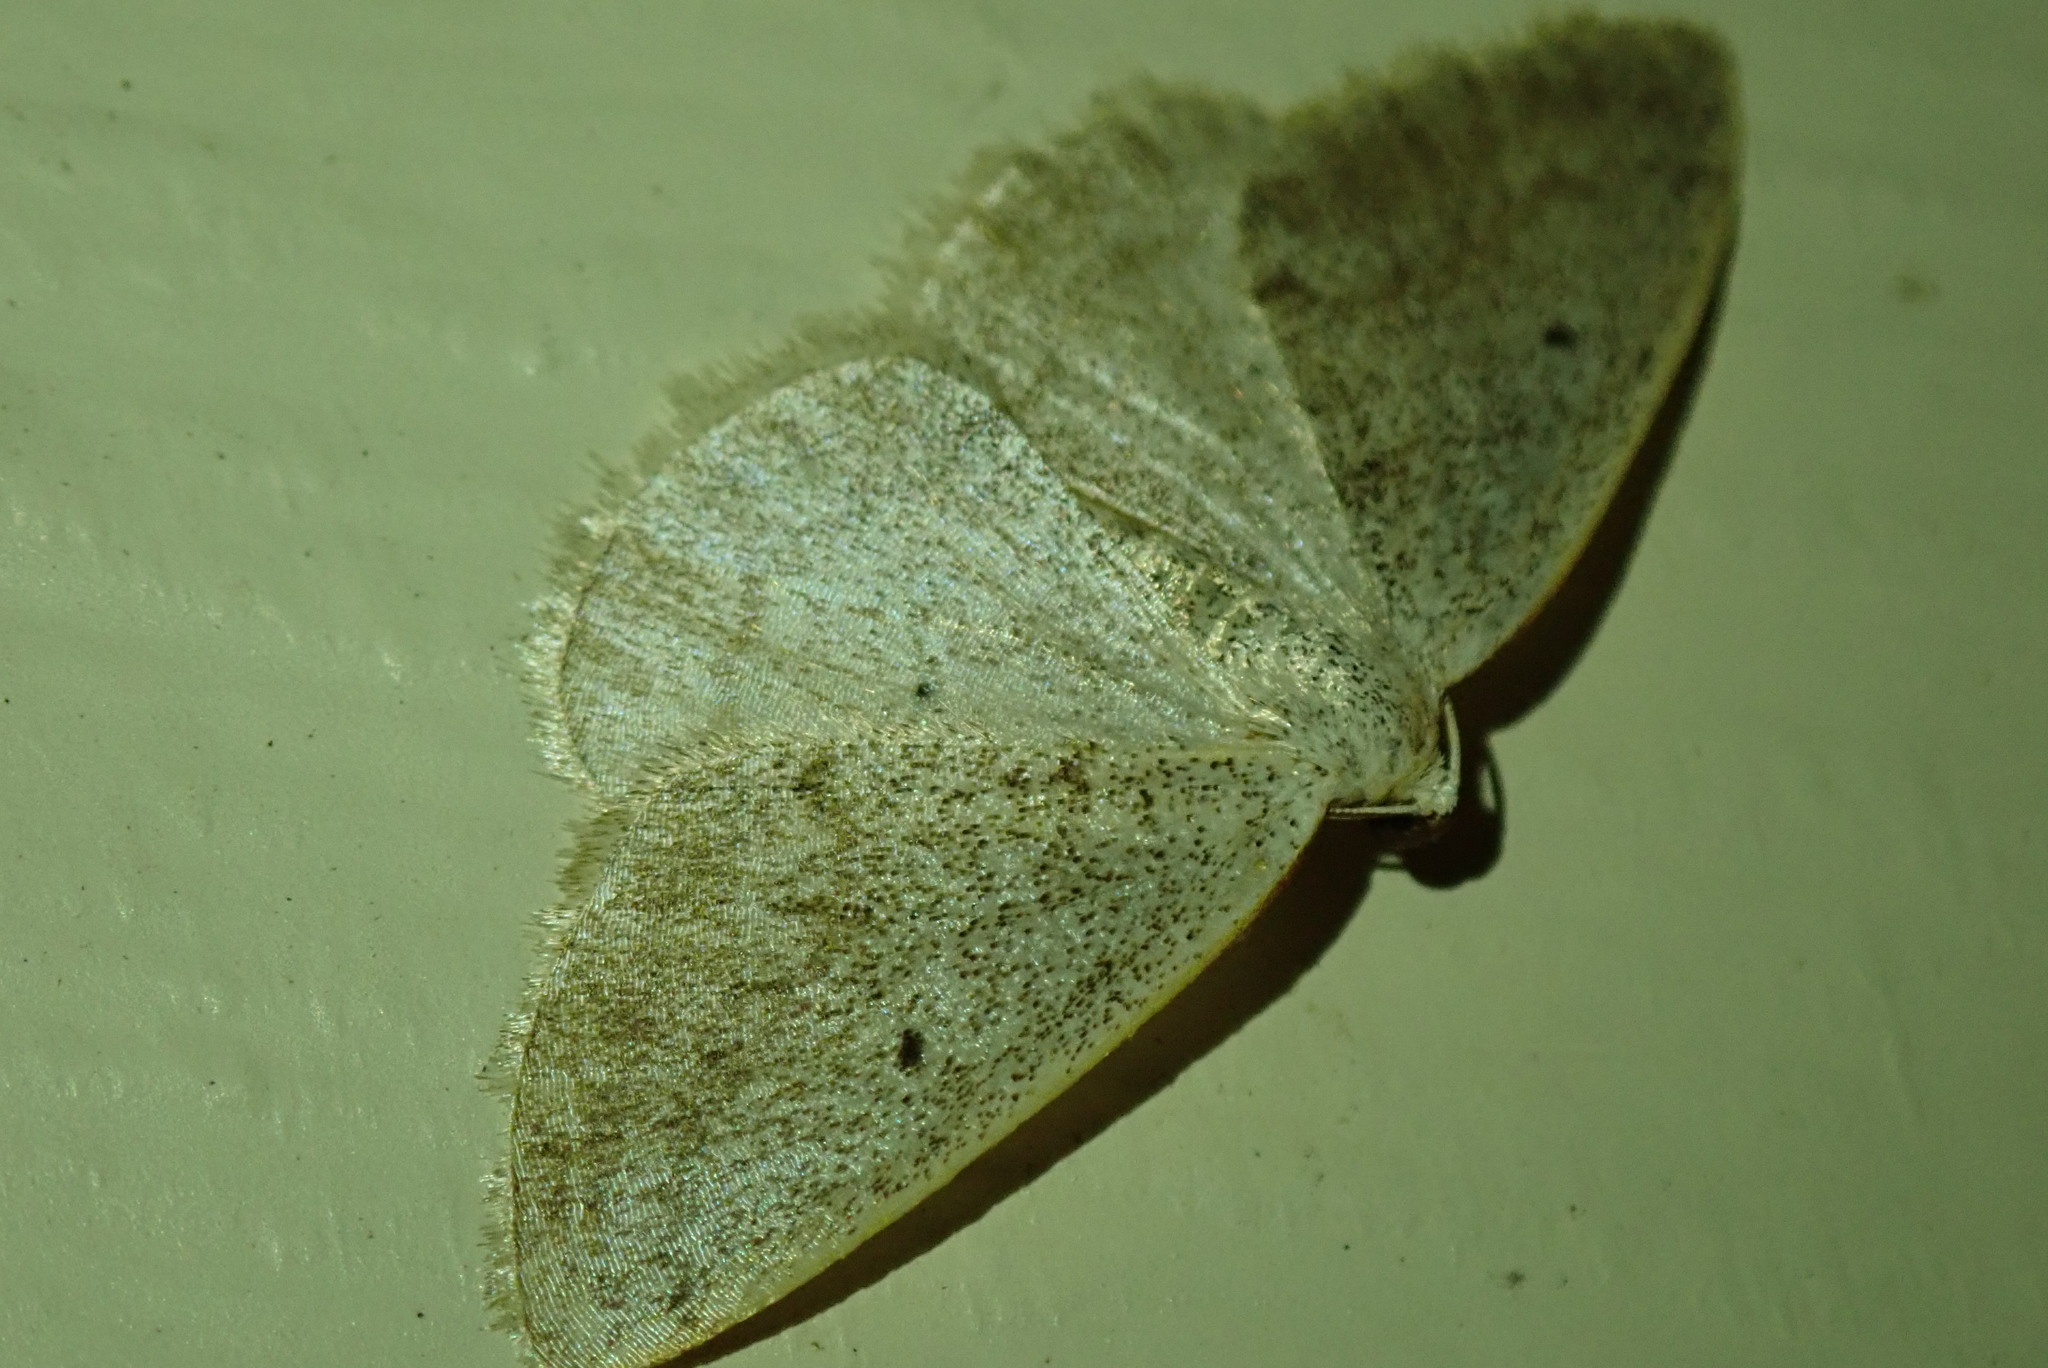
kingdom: Animalia
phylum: Arthropoda
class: Insecta
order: Lepidoptera
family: Geometridae
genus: Lomographa
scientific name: Lomographa glomeraria
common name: Gray spring moth
